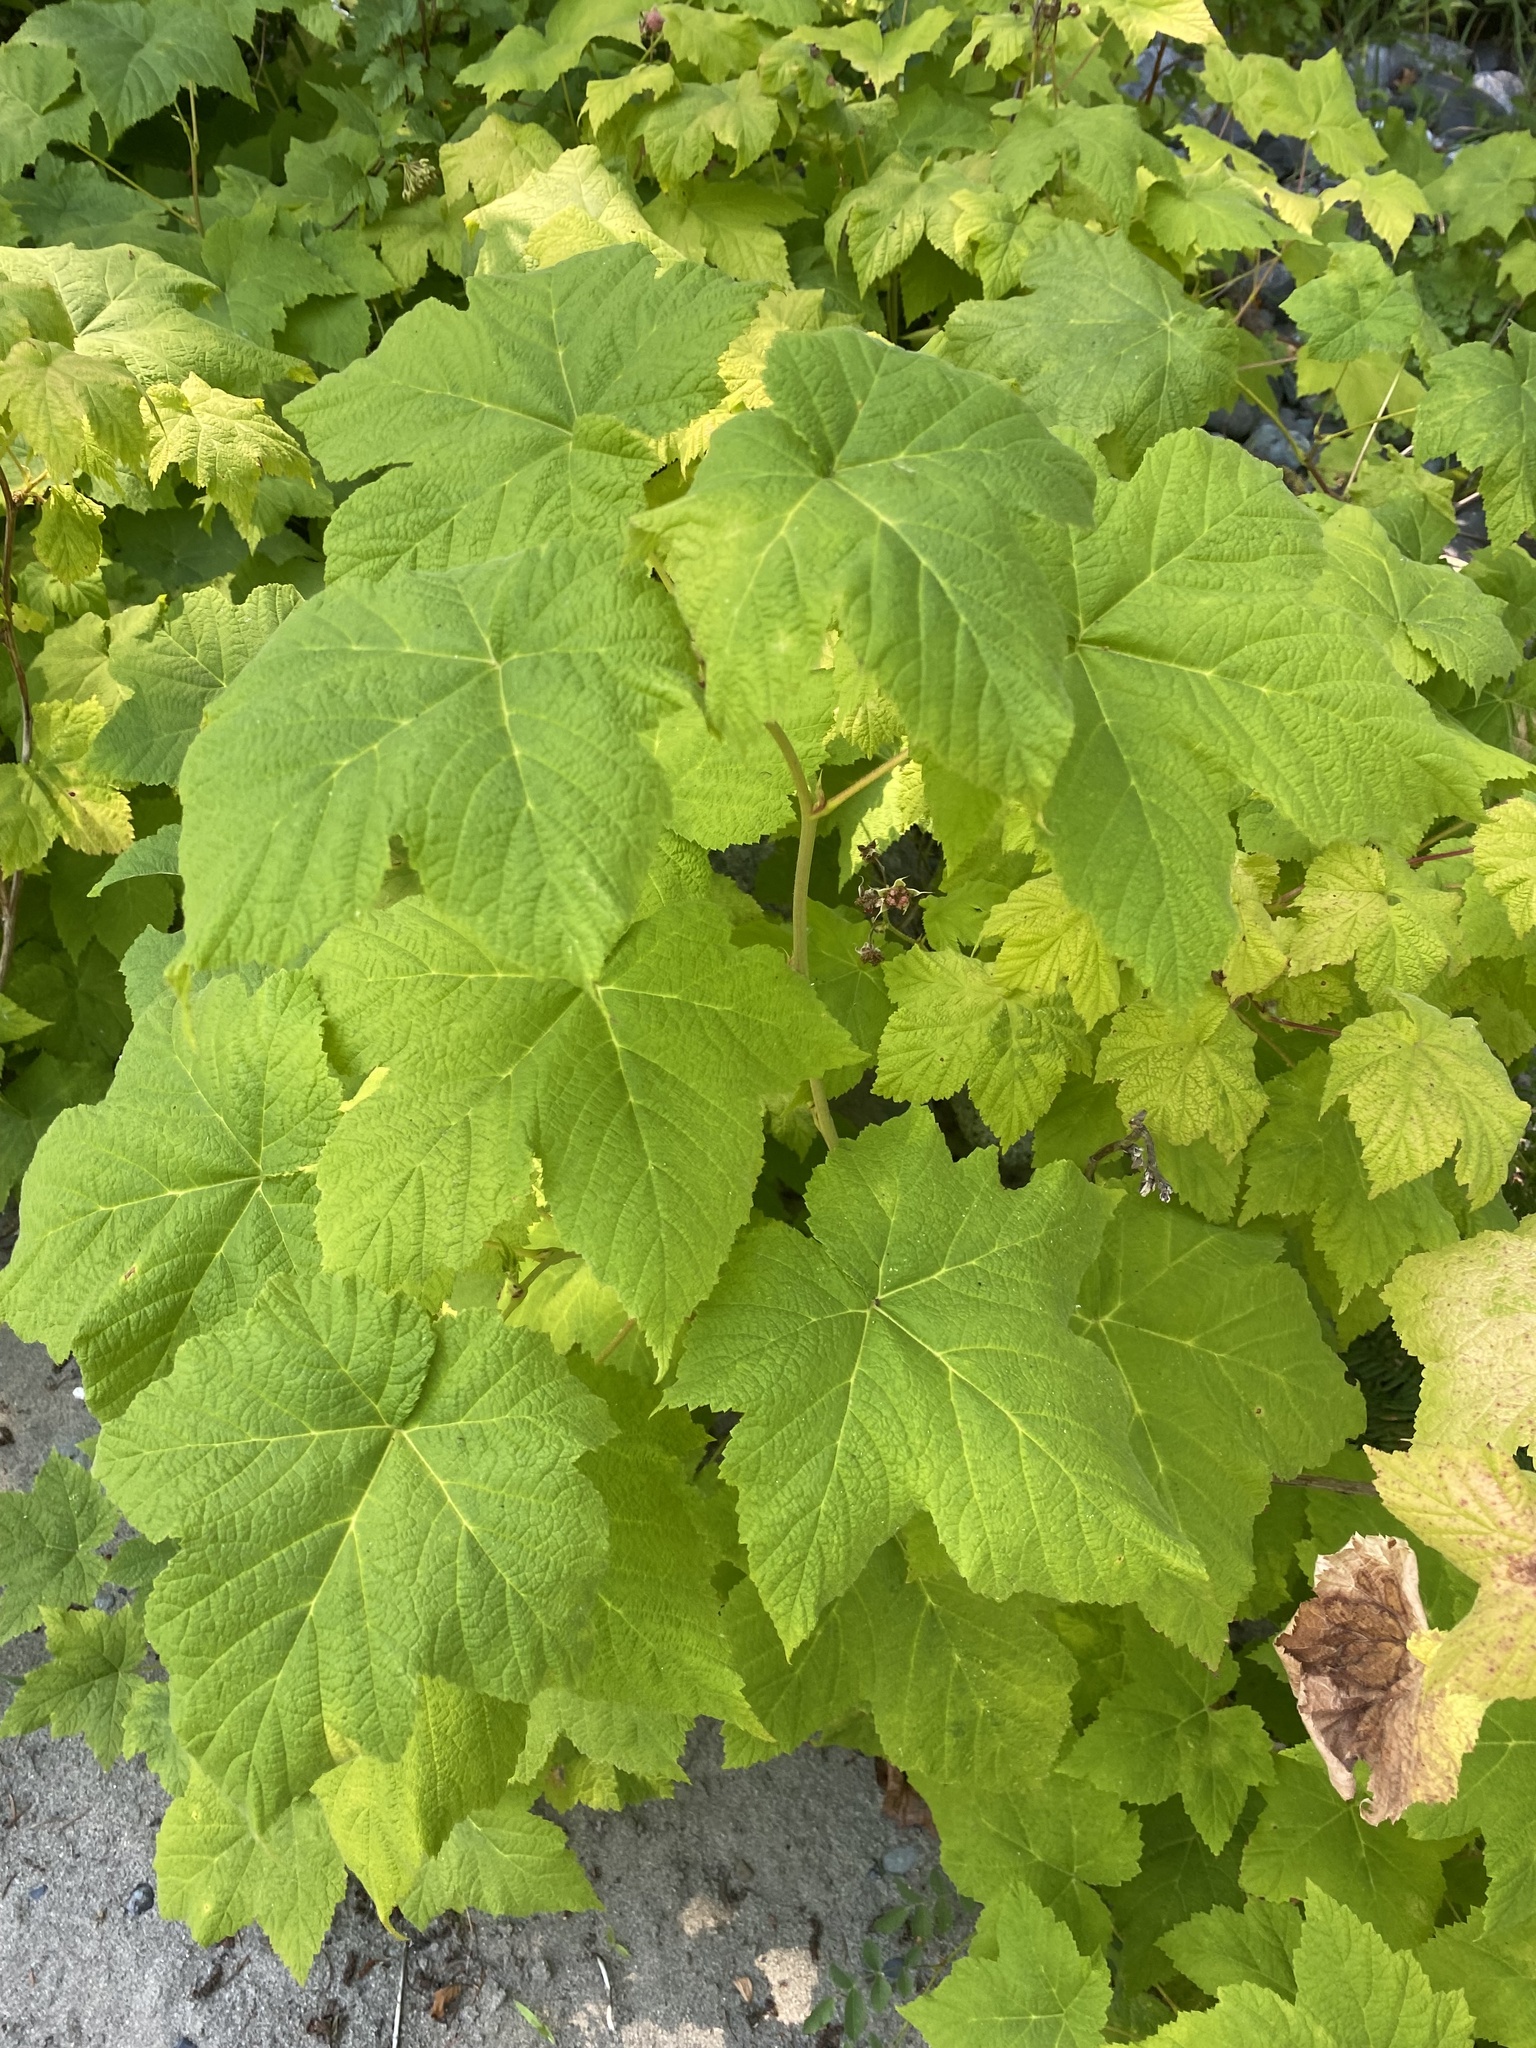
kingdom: Plantae
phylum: Tracheophyta
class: Magnoliopsida
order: Rosales
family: Rosaceae
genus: Rubus
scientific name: Rubus parviflorus
